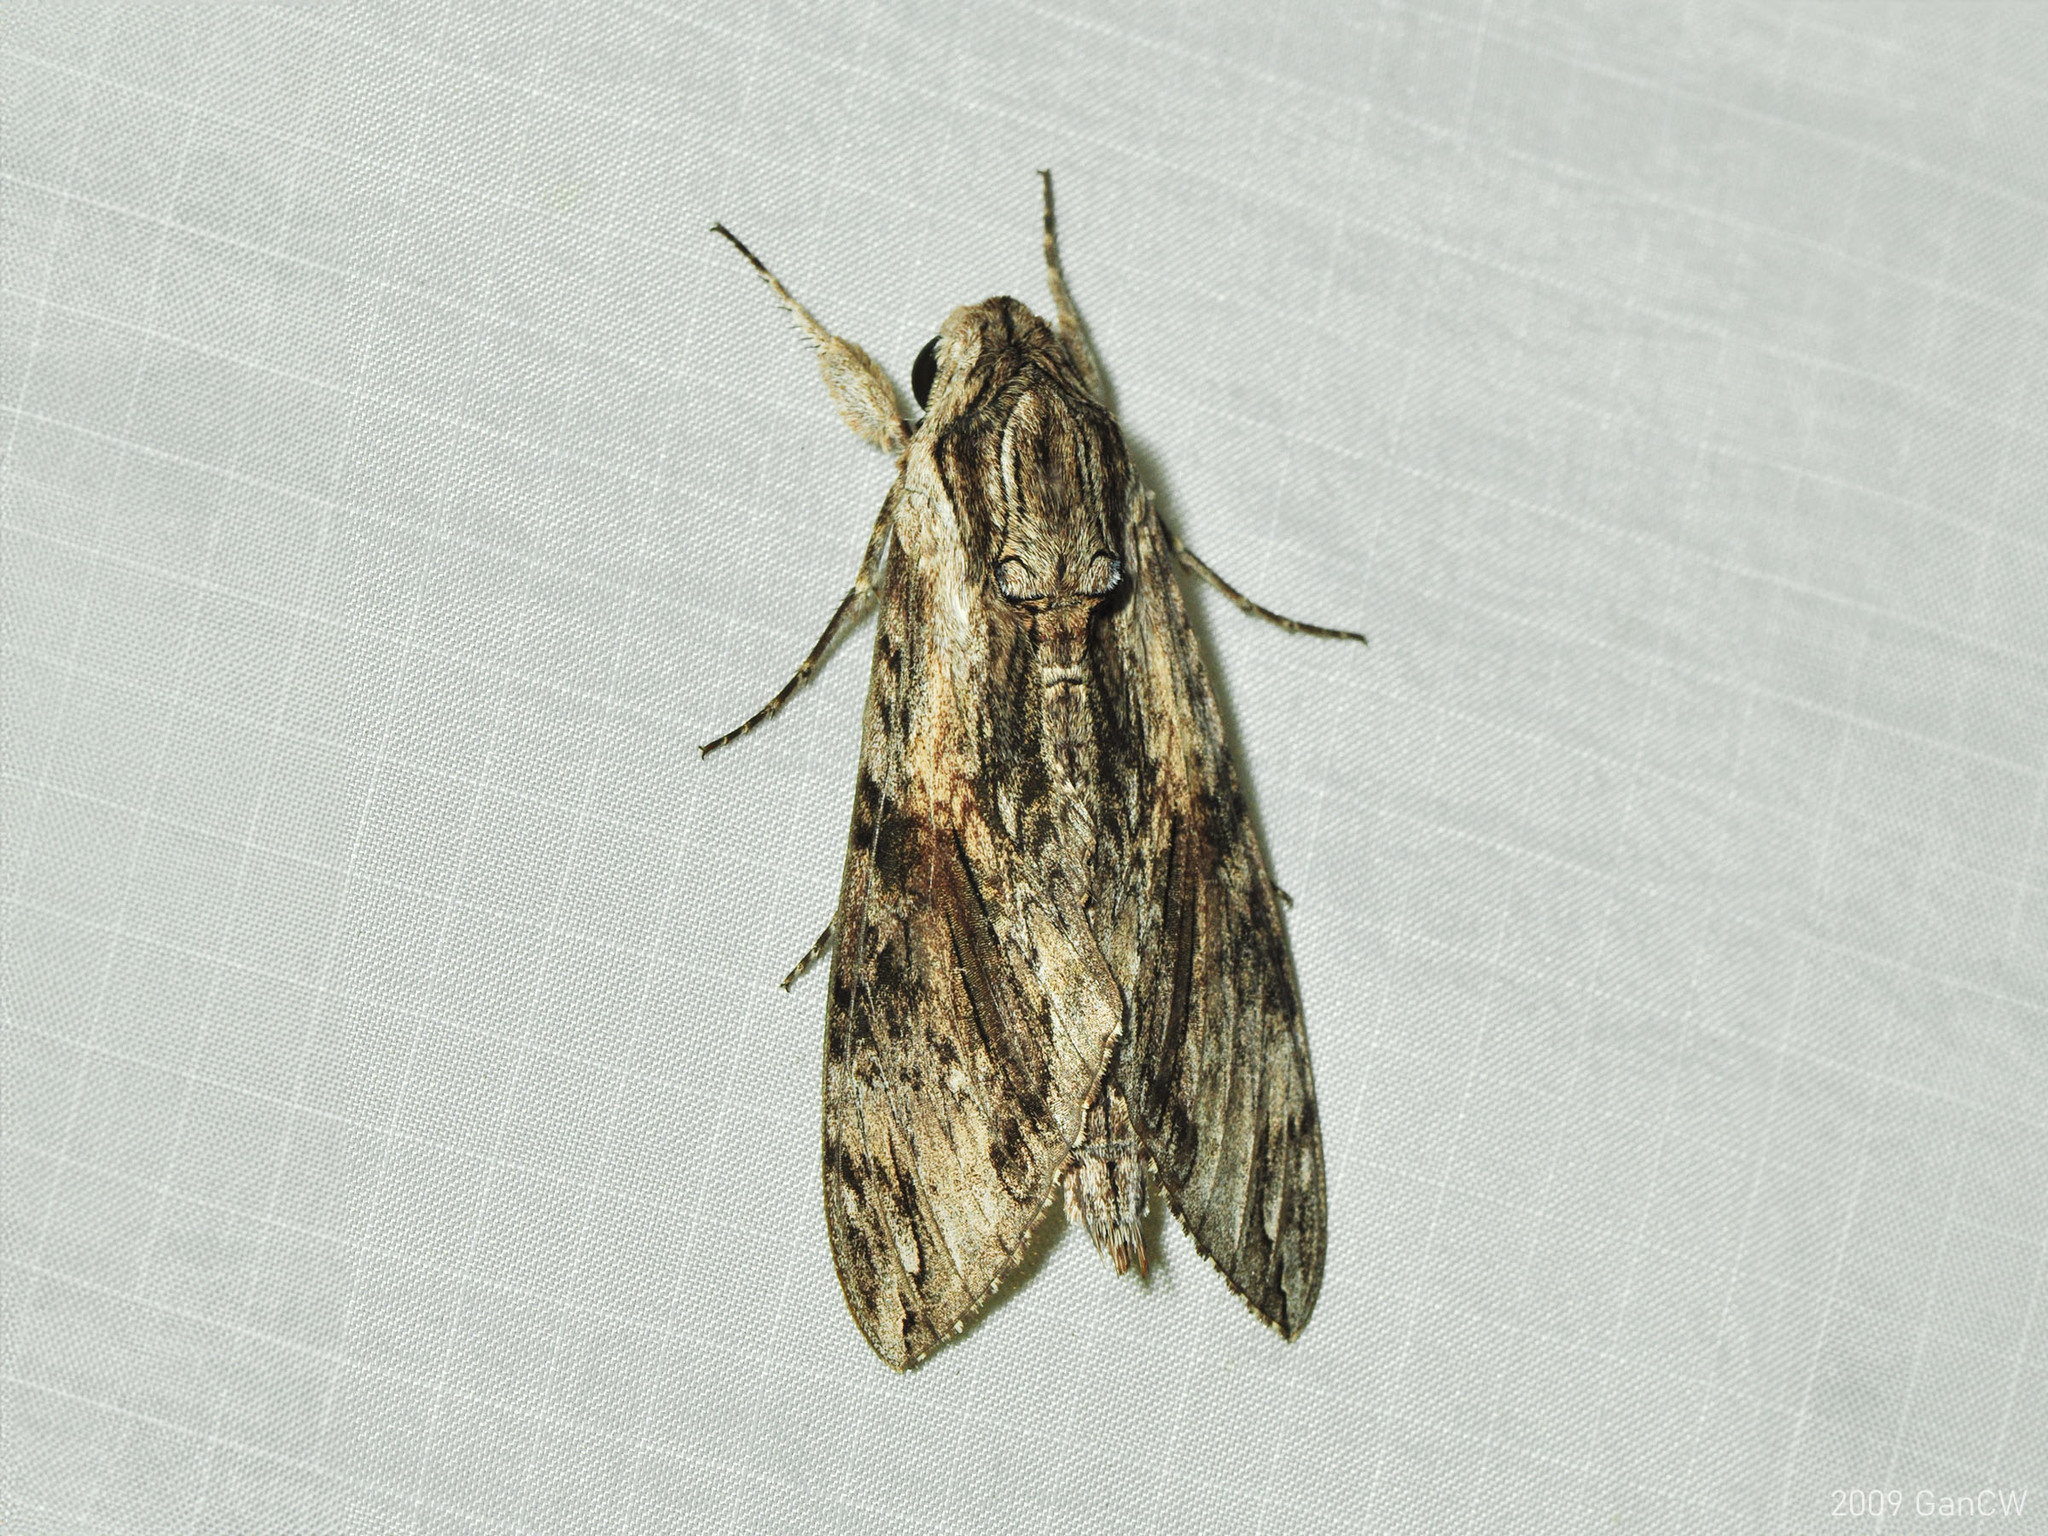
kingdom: Animalia
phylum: Arthropoda
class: Insecta
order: Lepidoptera
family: Sphingidae
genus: Agrius
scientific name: Agrius convolvuli
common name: Convolvulus hawkmoth
